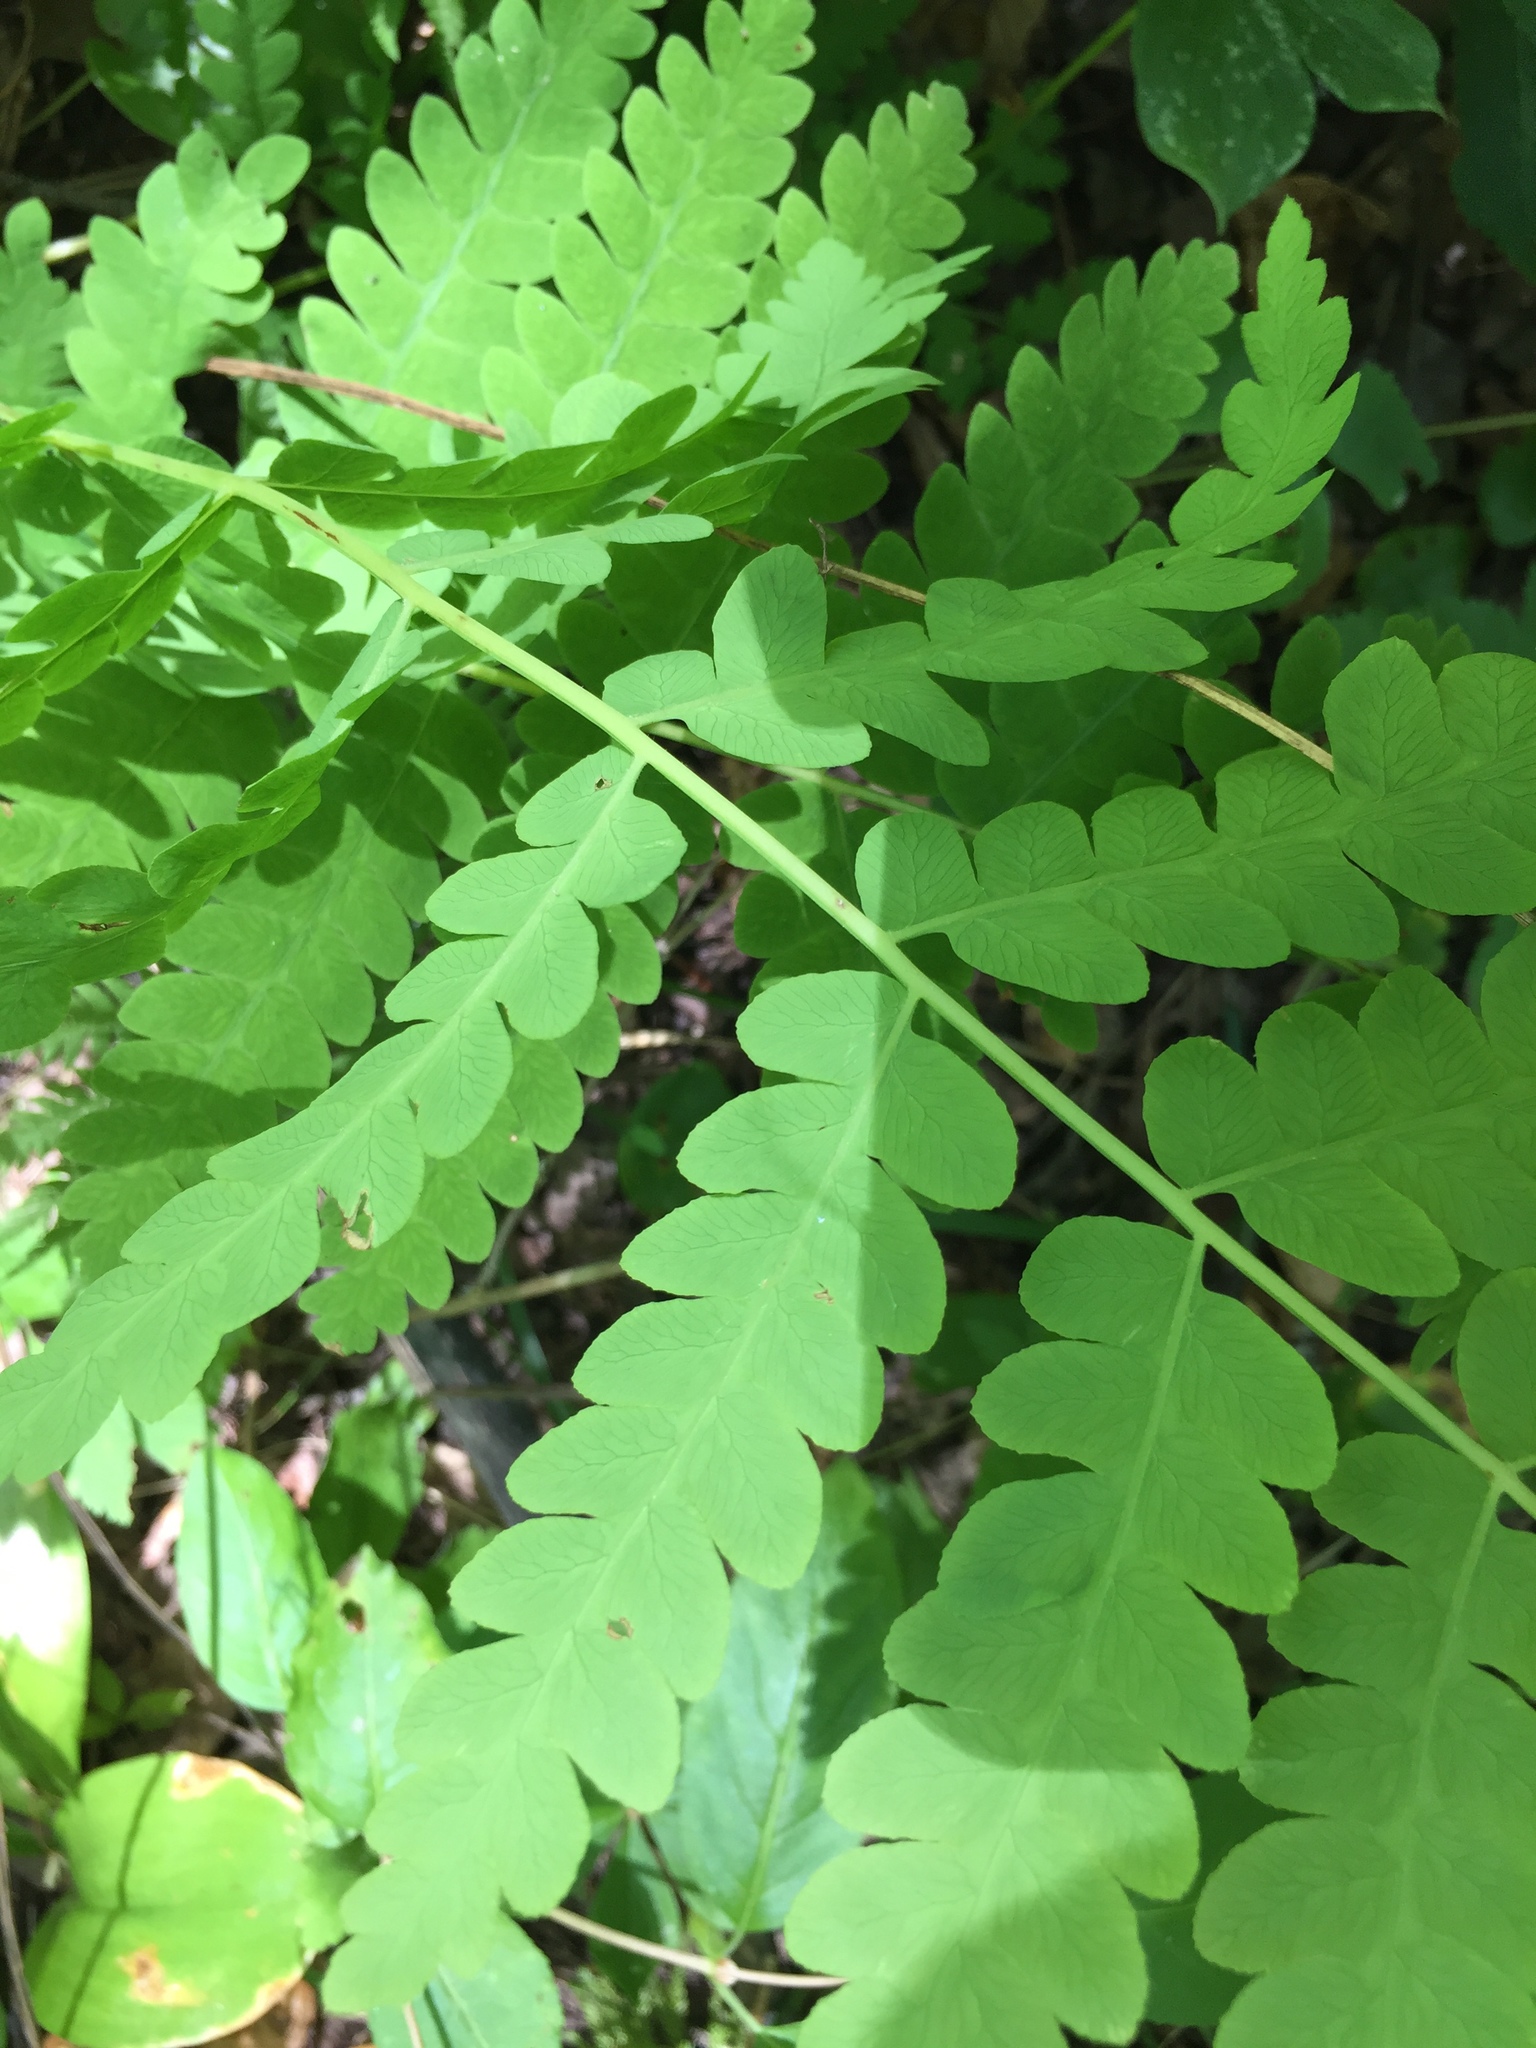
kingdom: Plantae
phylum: Tracheophyta
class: Polypodiopsida
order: Osmundales
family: Osmundaceae
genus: Claytosmunda
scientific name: Claytosmunda claytoniana
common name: Clayton's fern
